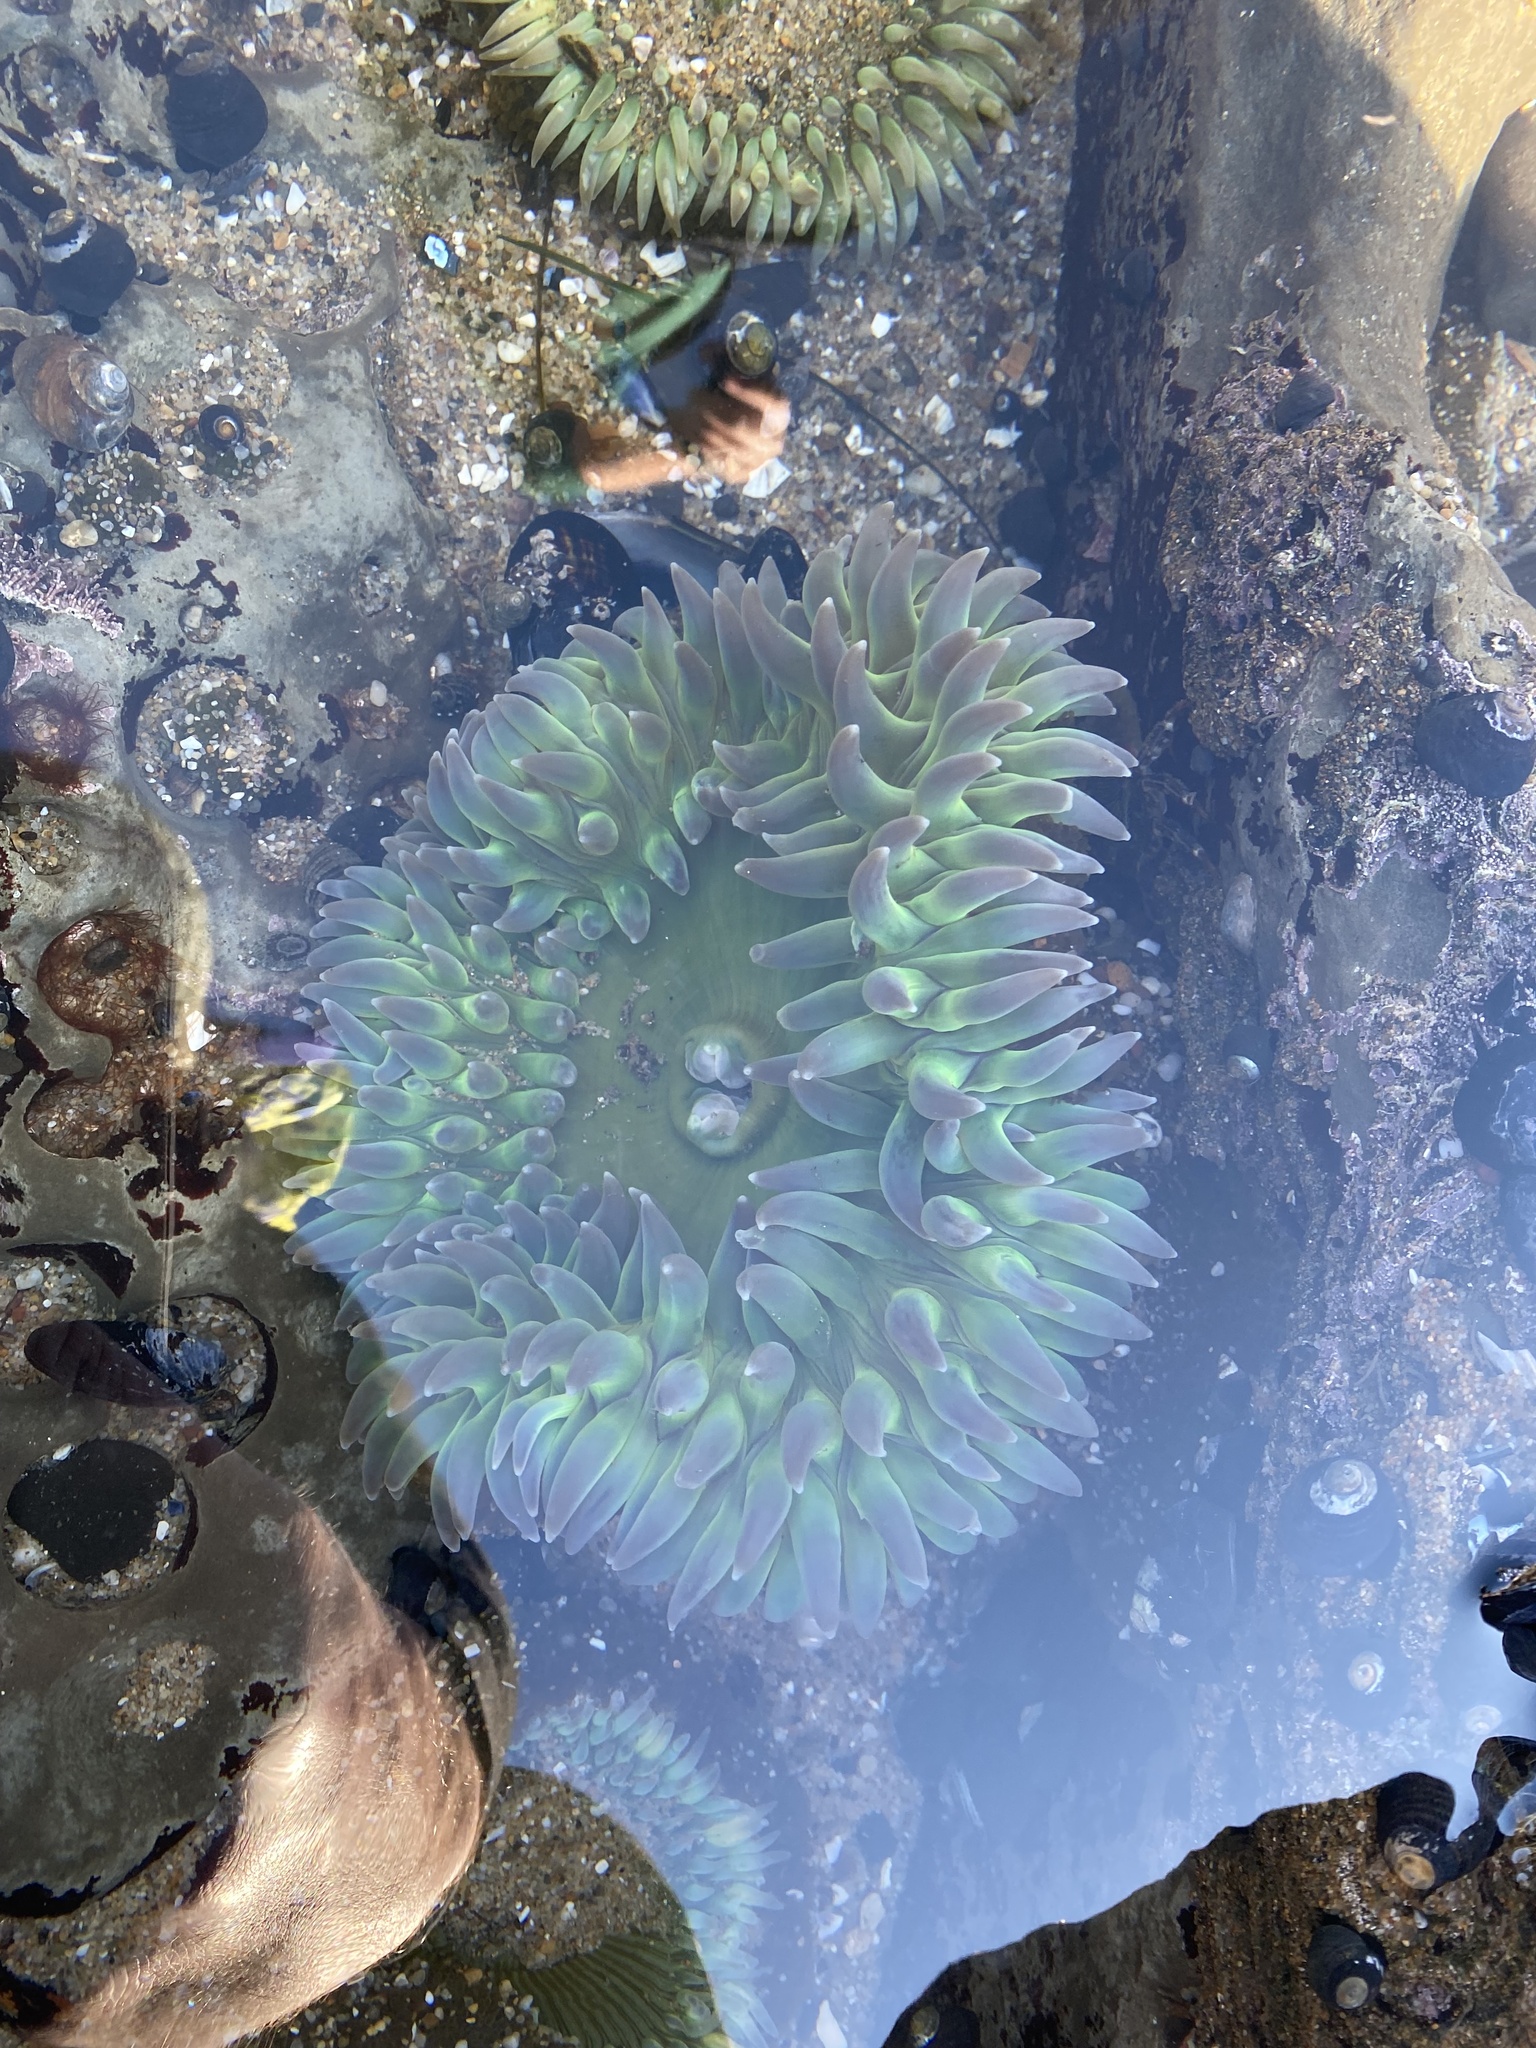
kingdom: Animalia
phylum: Cnidaria
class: Anthozoa
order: Actiniaria
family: Actiniidae
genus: Anthopleura
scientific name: Anthopleura xanthogrammica
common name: Giant green anemone
